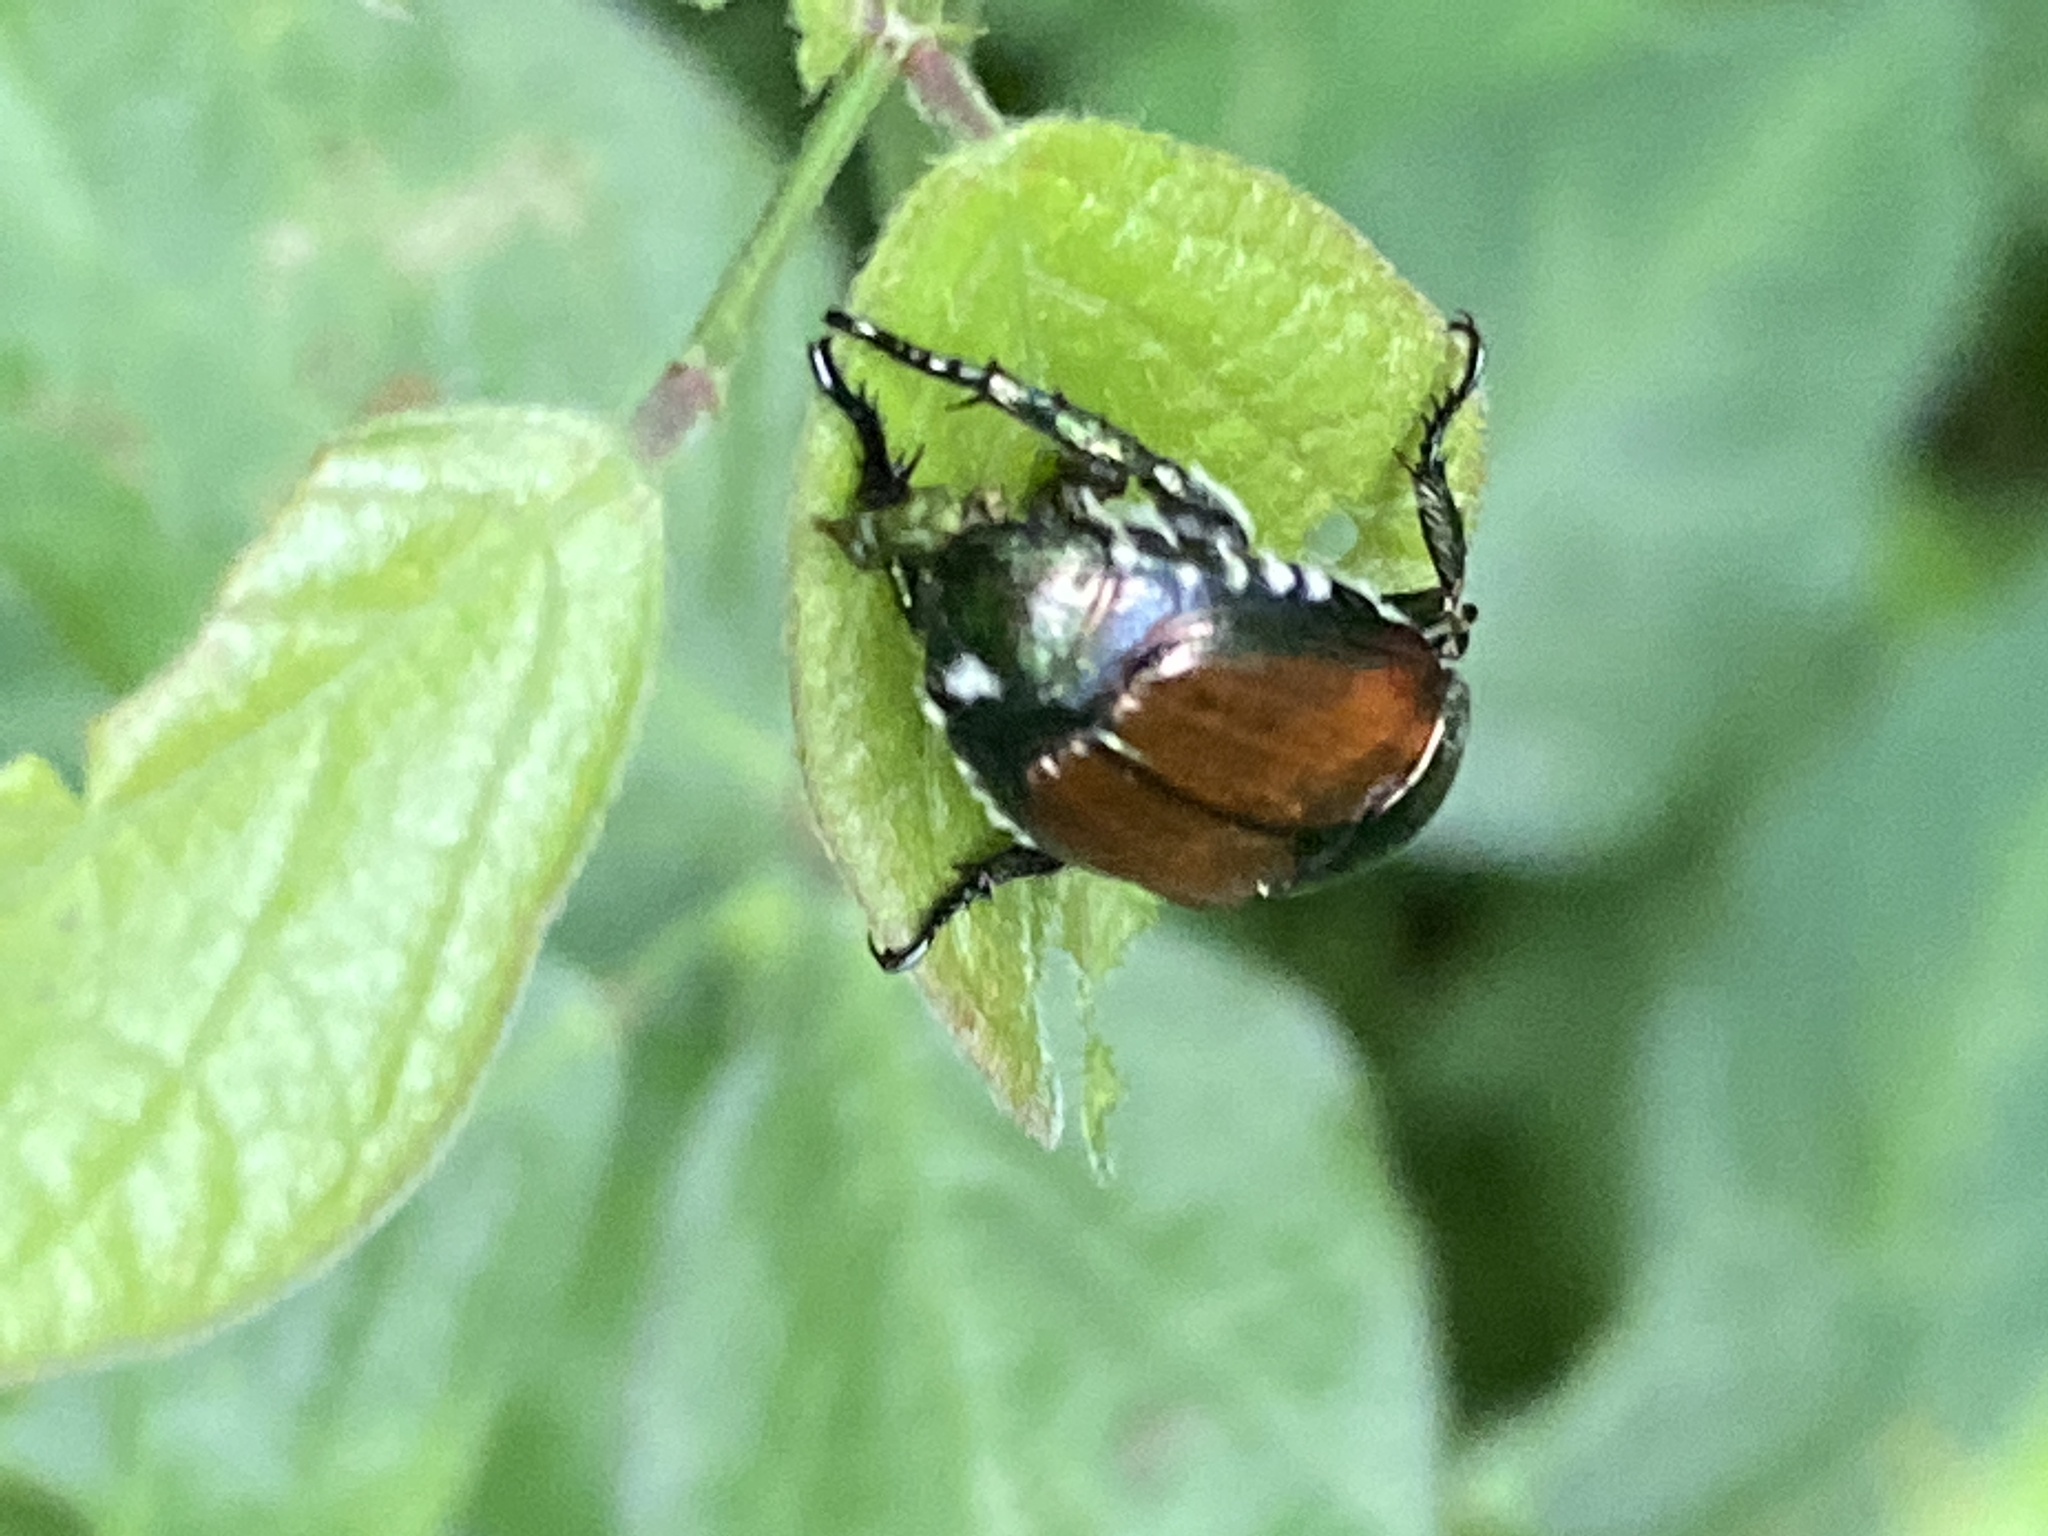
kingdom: Animalia
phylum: Arthropoda
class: Insecta
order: Coleoptera
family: Scarabaeidae
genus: Popillia
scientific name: Popillia japonica
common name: Japanese beetle
